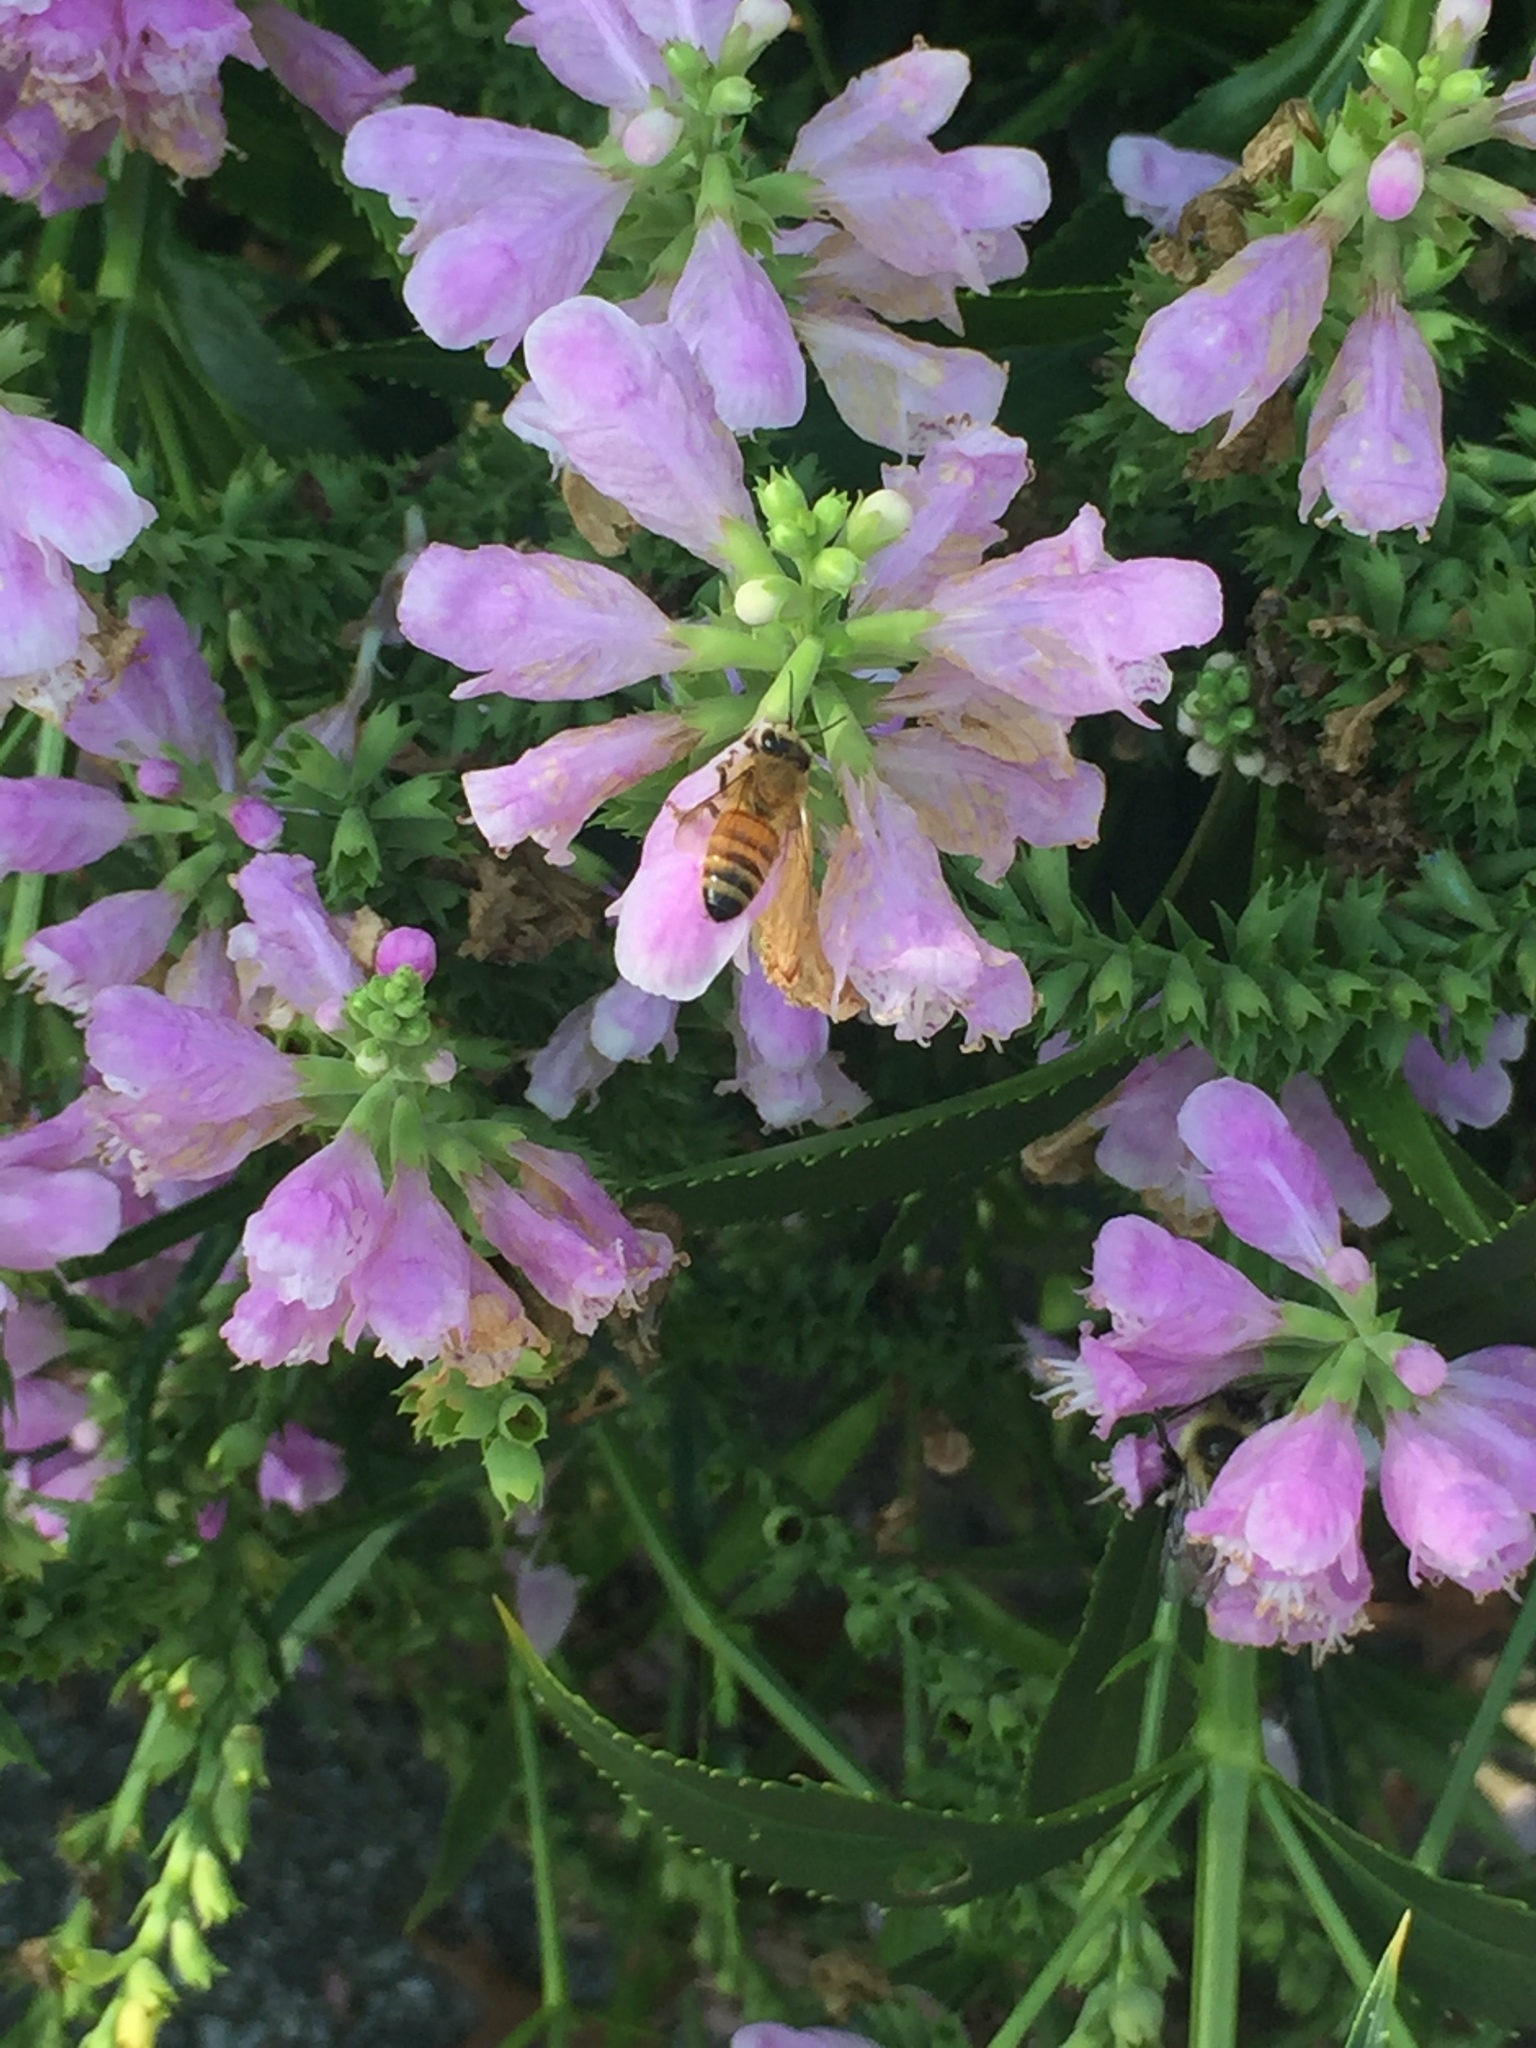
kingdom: Animalia
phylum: Arthropoda
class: Insecta
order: Hymenoptera
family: Apidae
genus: Apis
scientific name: Apis mellifera
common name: Honey bee
